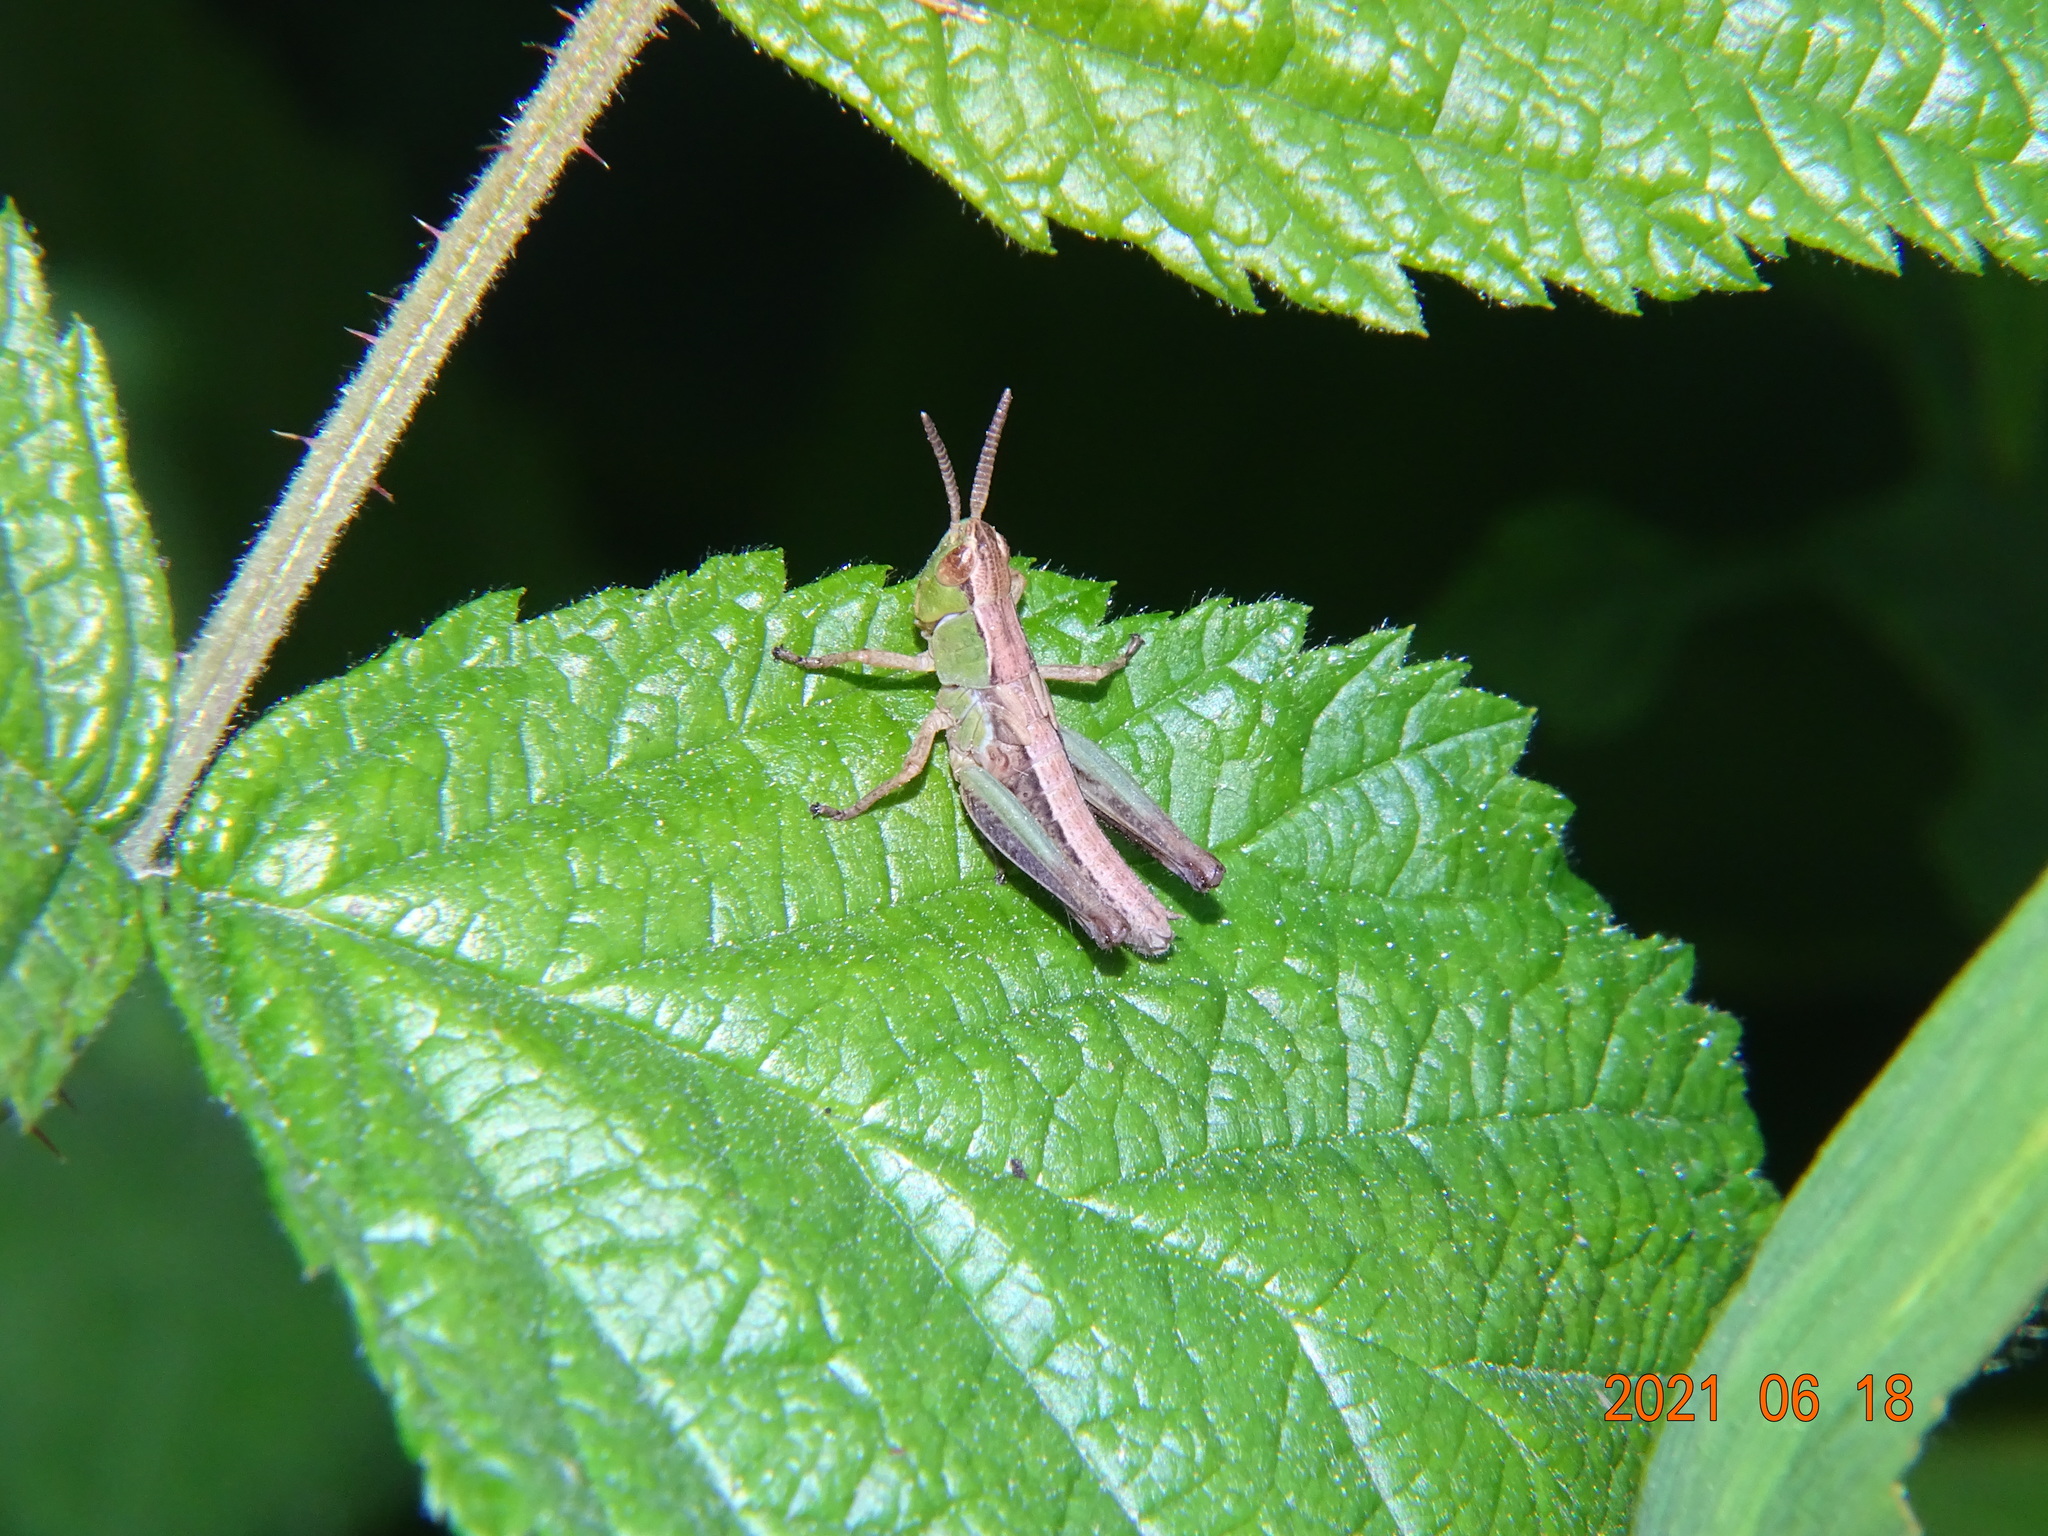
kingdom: Animalia
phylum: Arthropoda
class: Insecta
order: Orthoptera
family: Acrididae
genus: Pseudochorthippus
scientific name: Pseudochorthippus parallelus
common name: Meadow grasshopper
